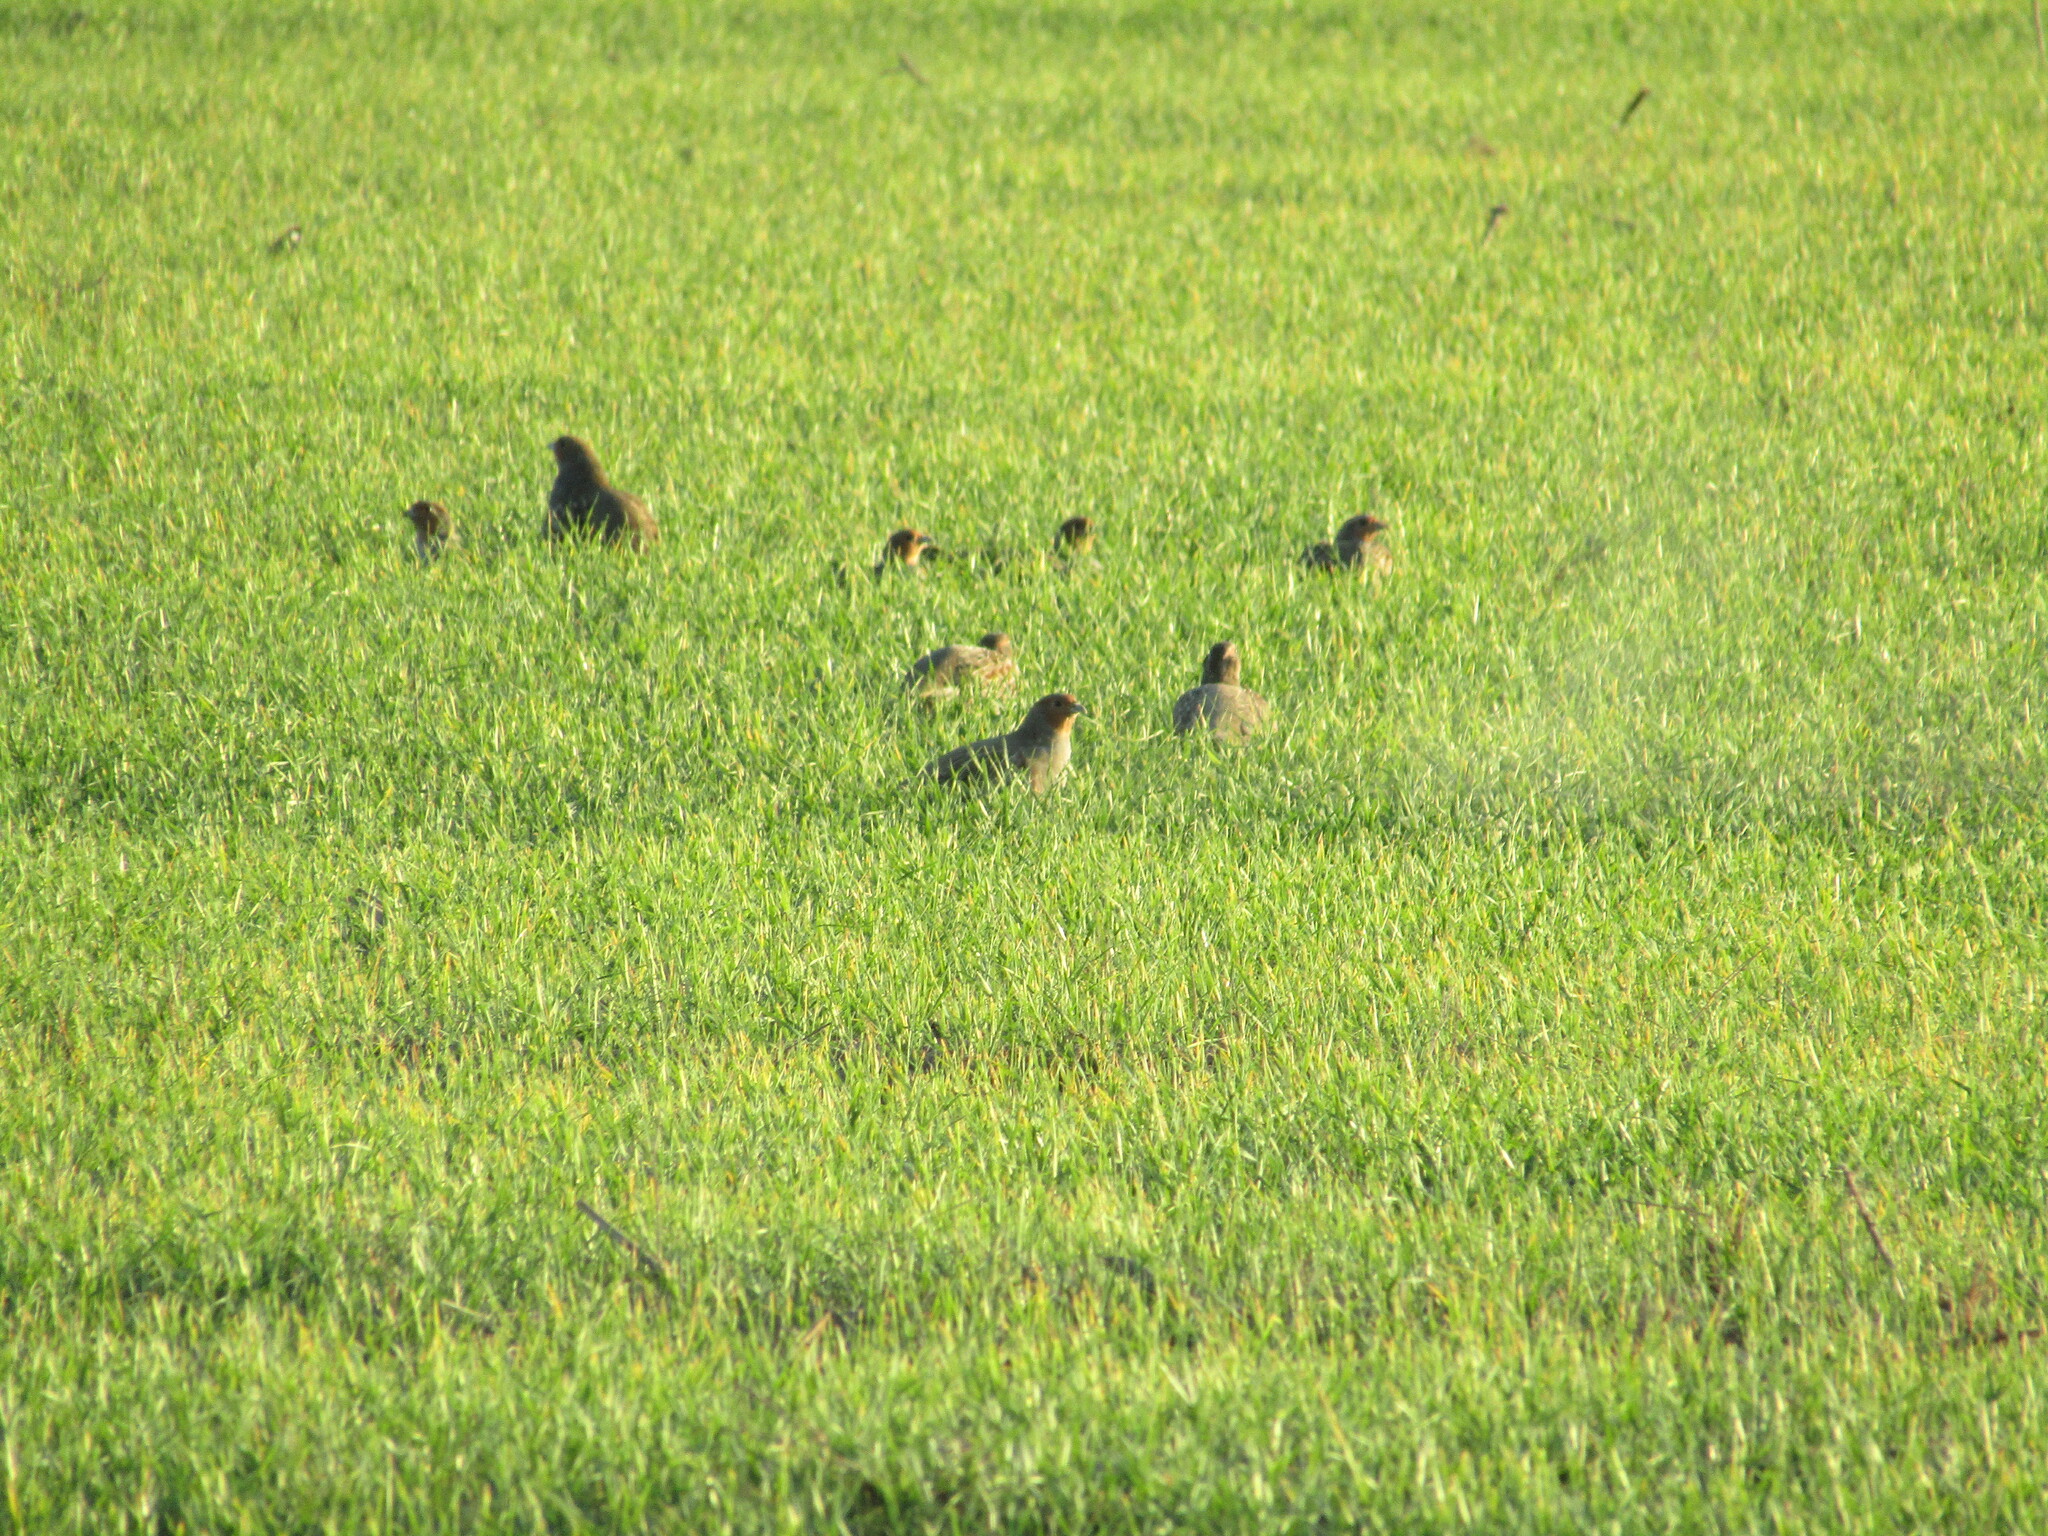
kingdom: Animalia
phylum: Chordata
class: Aves
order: Galliformes
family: Phasianidae
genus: Perdix
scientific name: Perdix perdix
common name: Grey partridge
